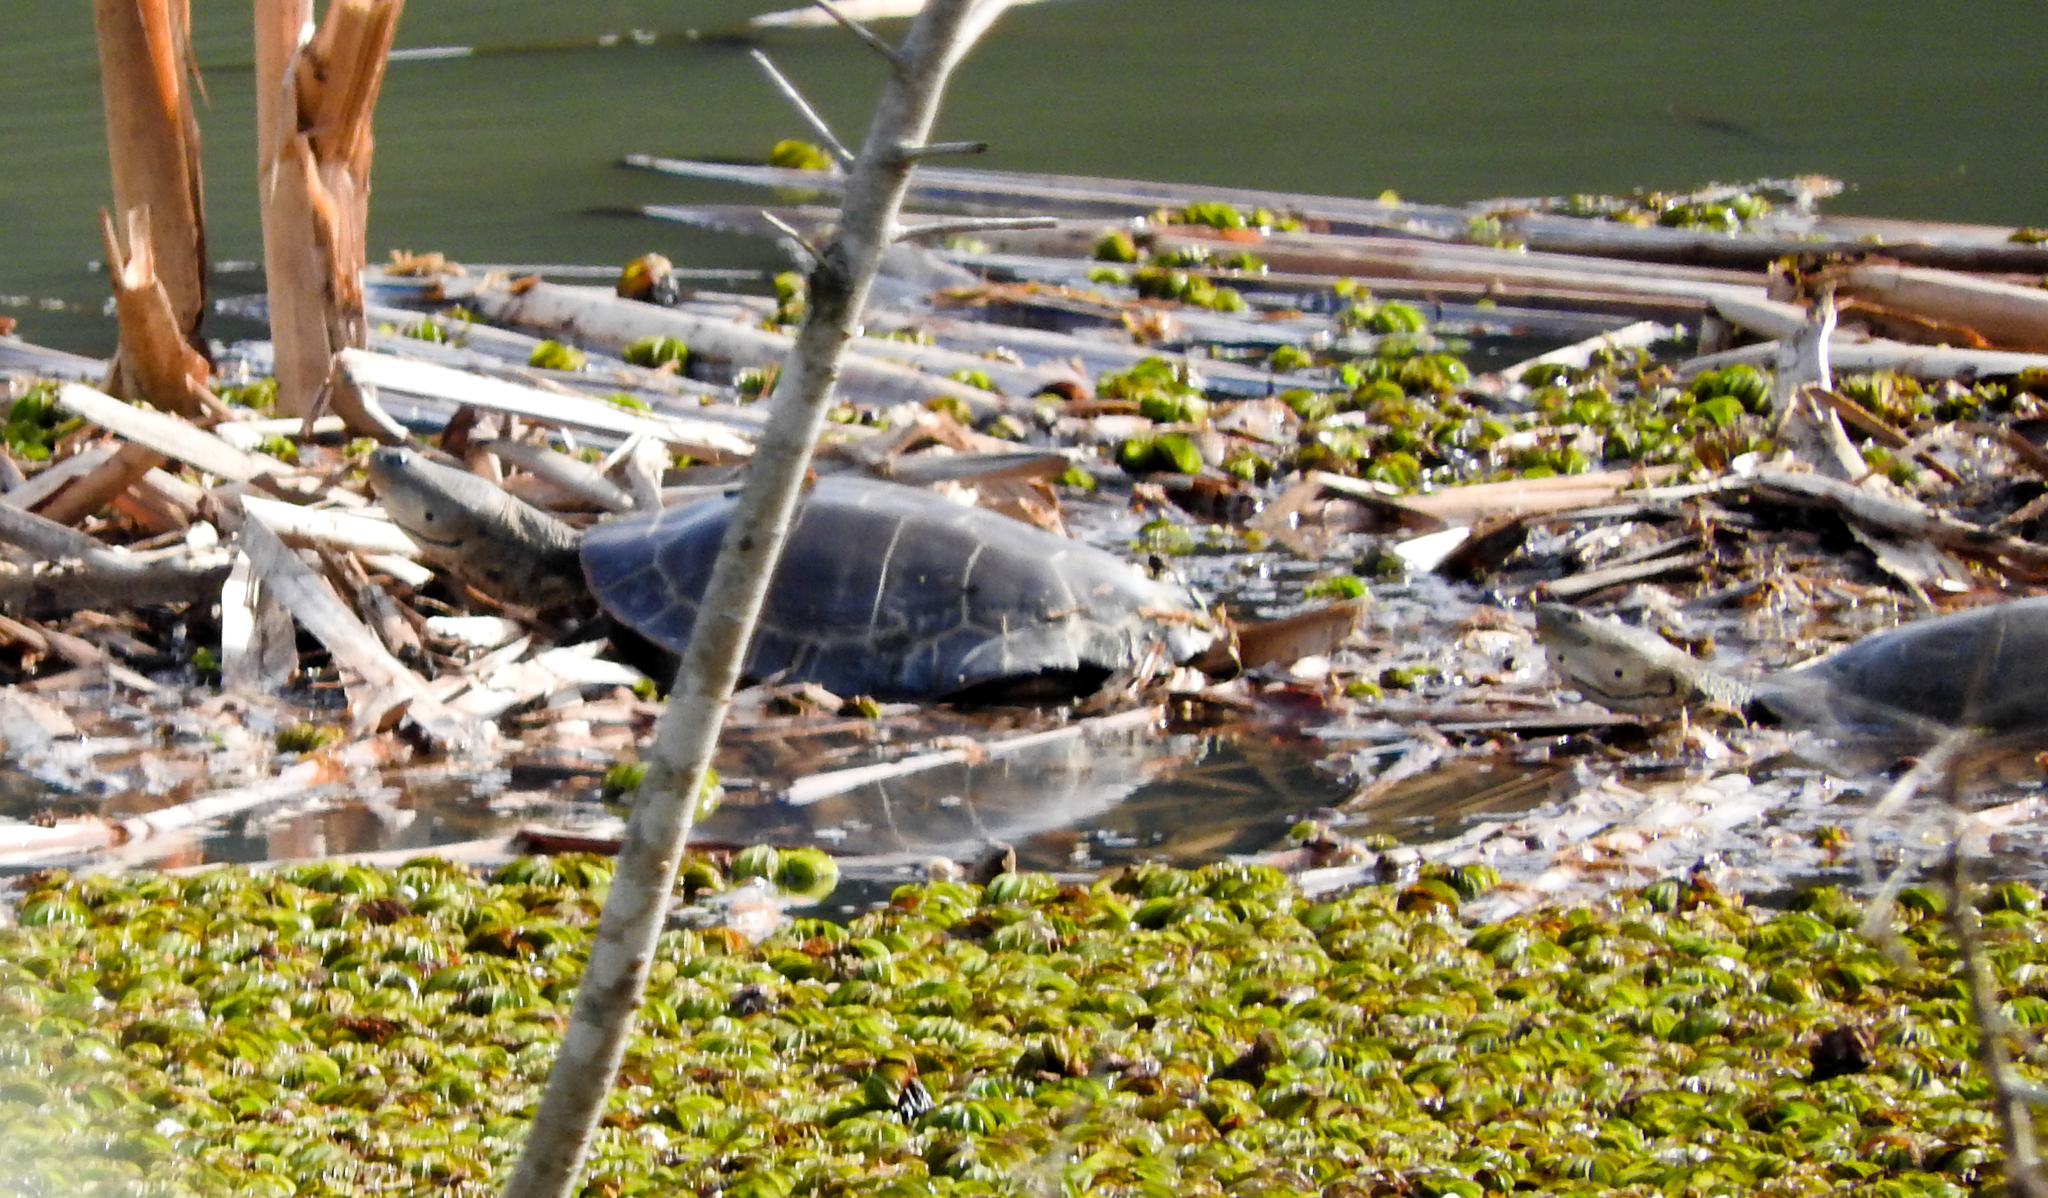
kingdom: Animalia
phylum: Chordata
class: Testudines
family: Chelidae
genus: Phrynops
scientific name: Phrynops hilarii
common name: Side-necked turtle of saint hillaire
